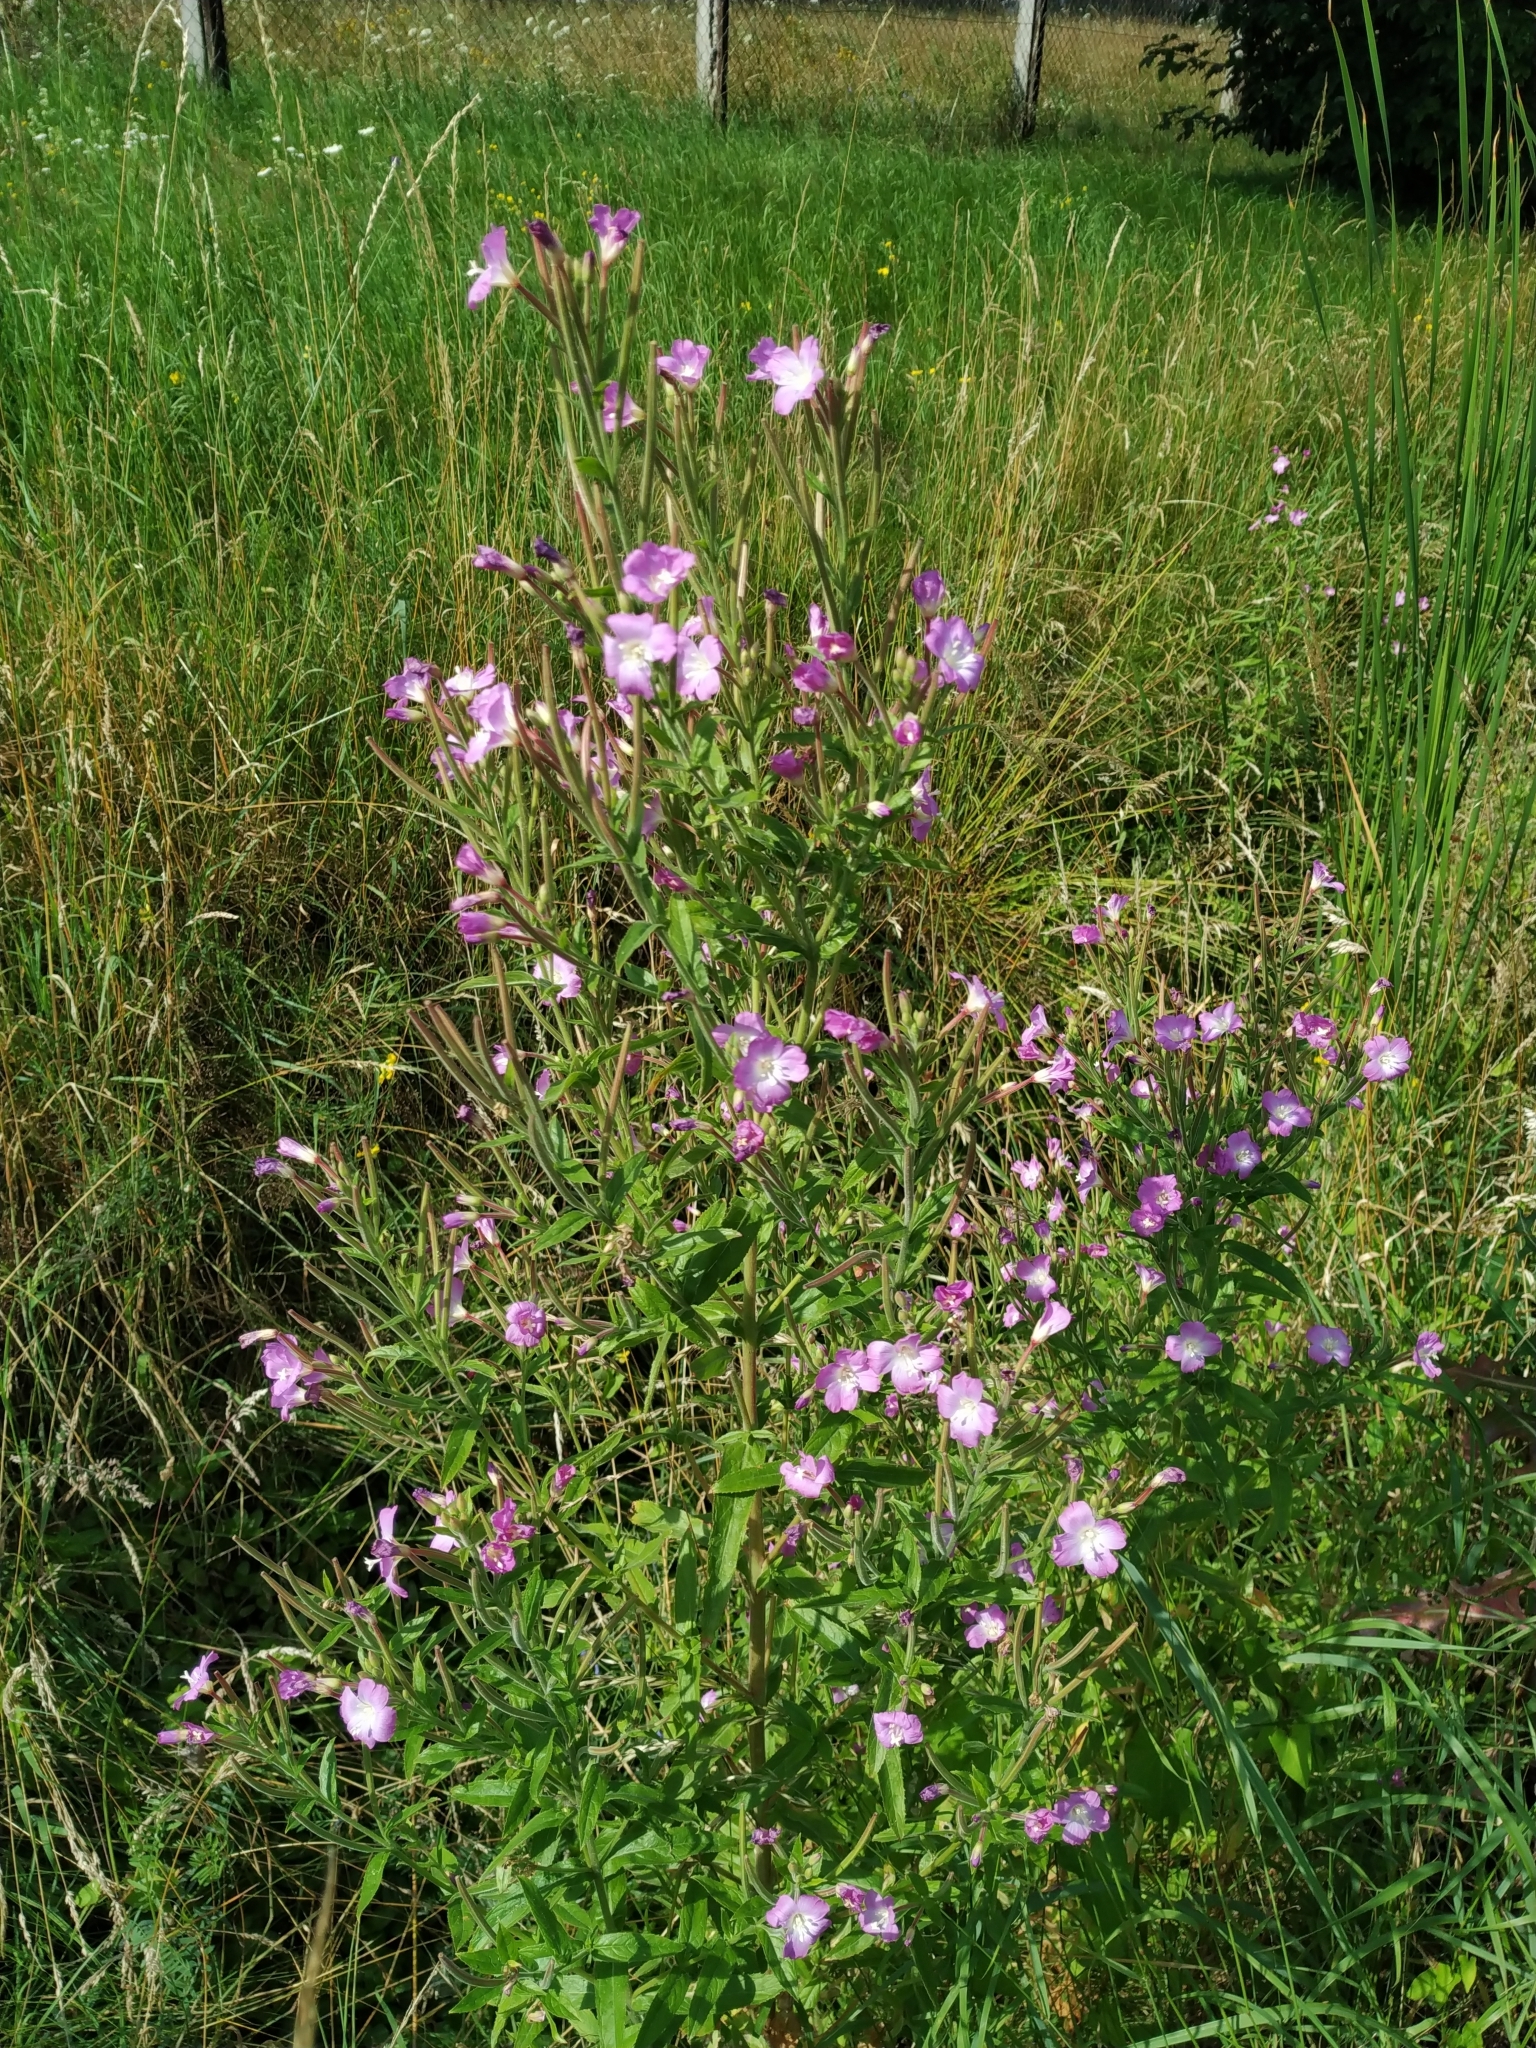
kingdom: Plantae
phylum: Tracheophyta
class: Magnoliopsida
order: Myrtales
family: Onagraceae
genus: Epilobium
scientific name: Epilobium hirsutum
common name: Great willowherb
